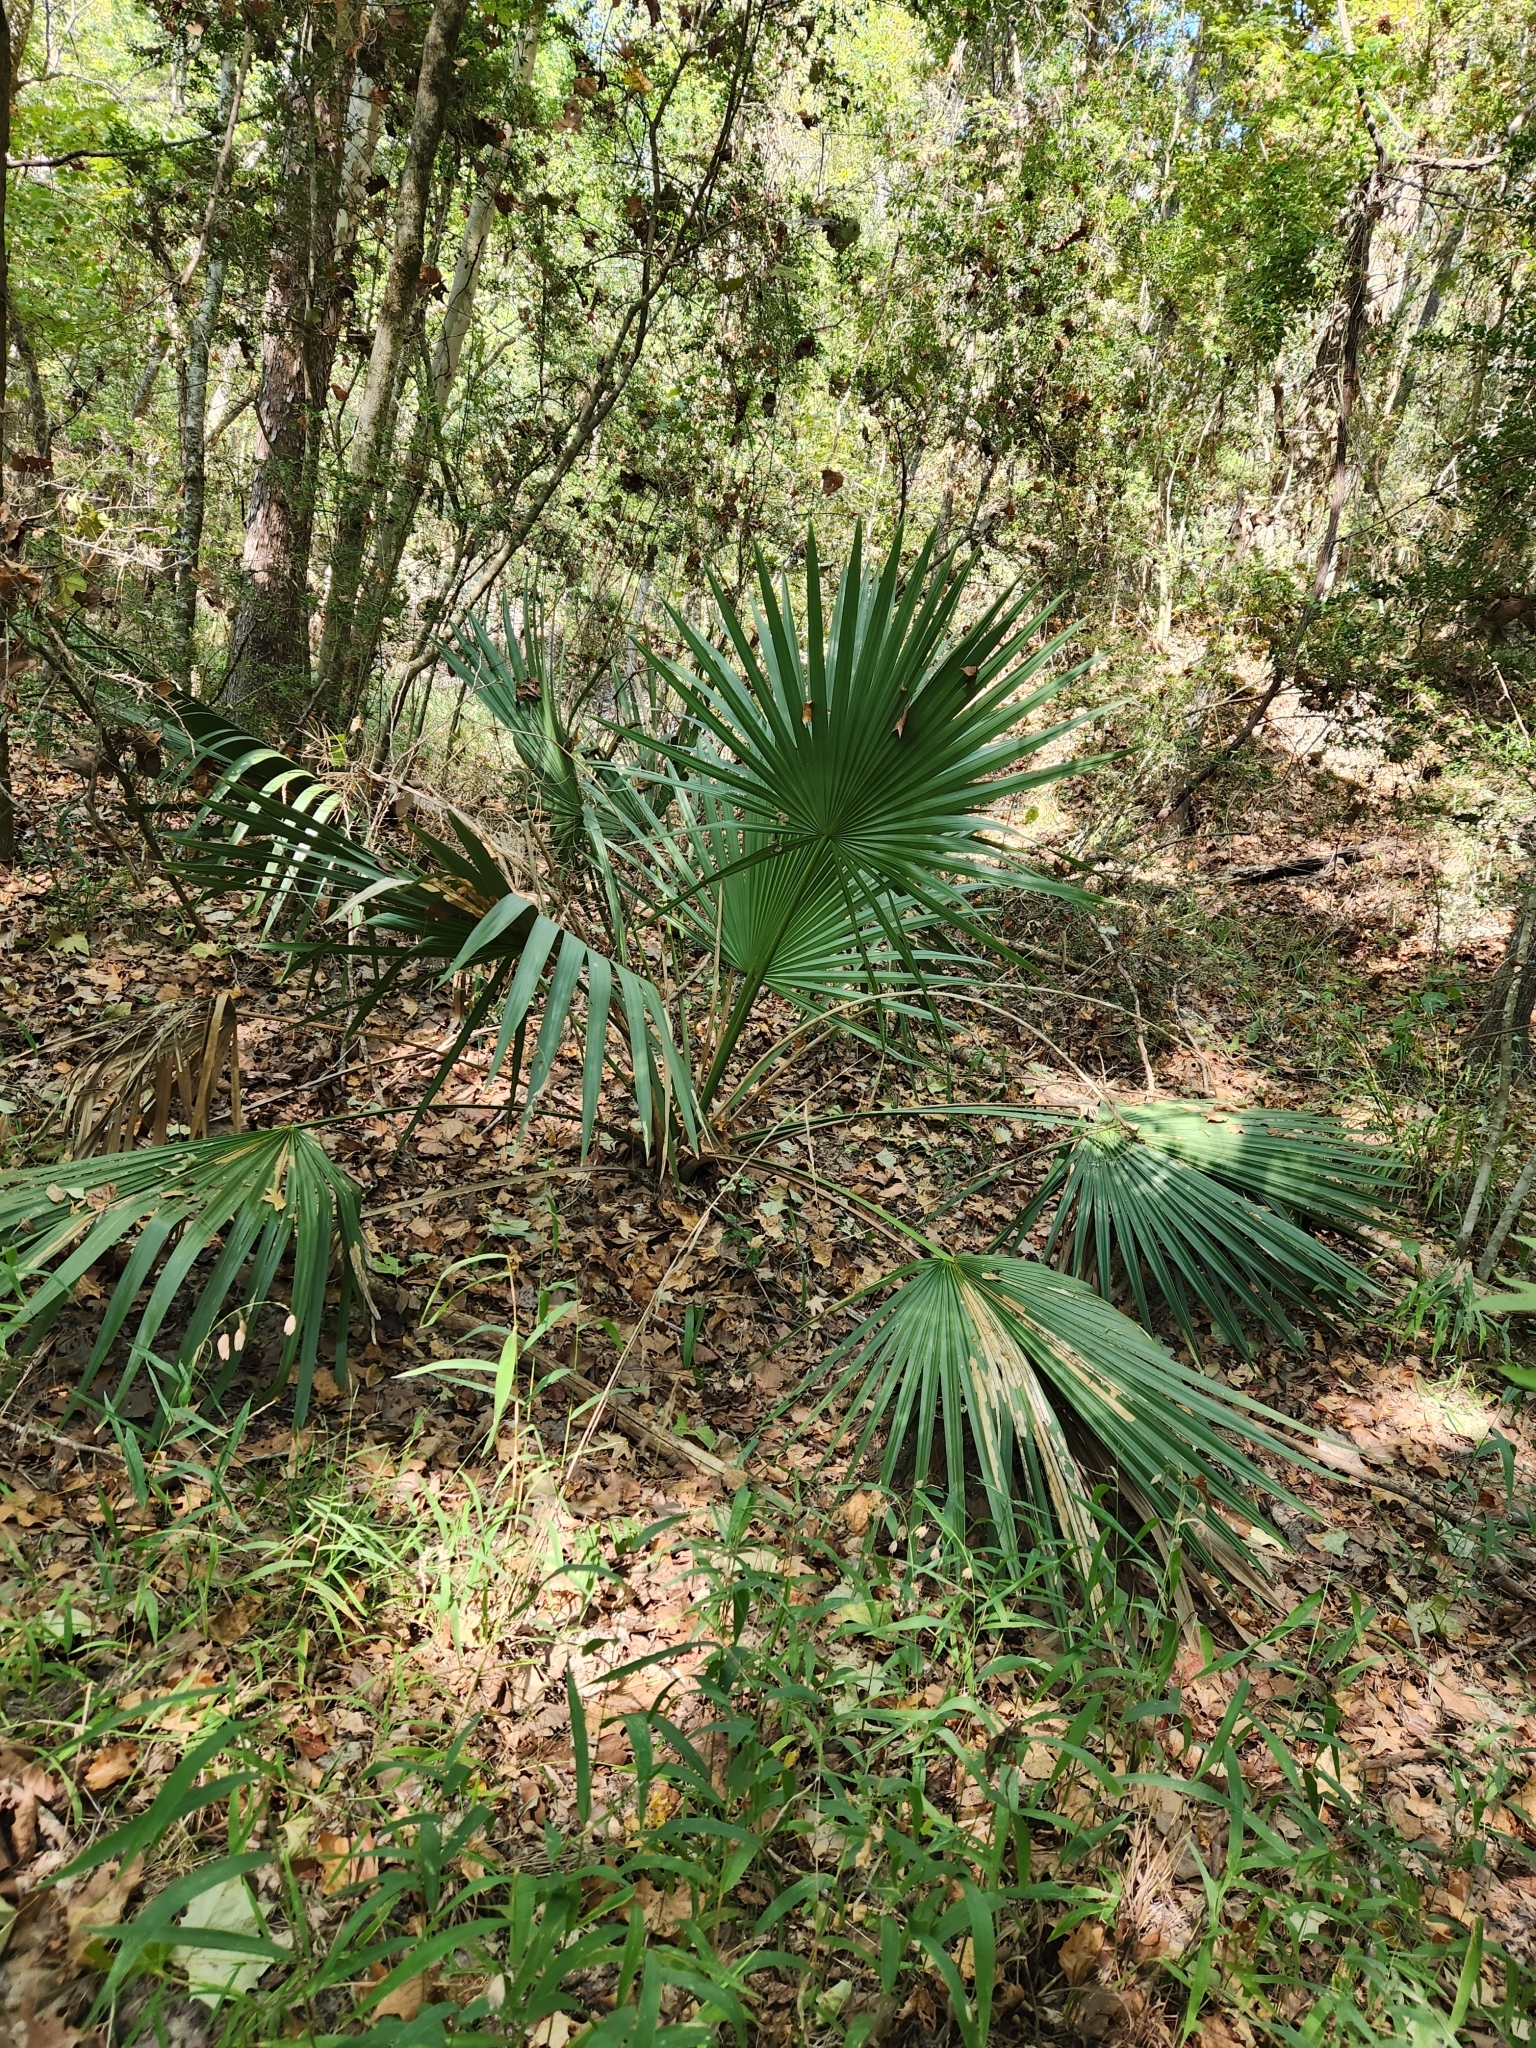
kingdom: Plantae
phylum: Tracheophyta
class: Liliopsida
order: Arecales
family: Arecaceae
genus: Sabal
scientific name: Sabal minor
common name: Dwarf palmetto
